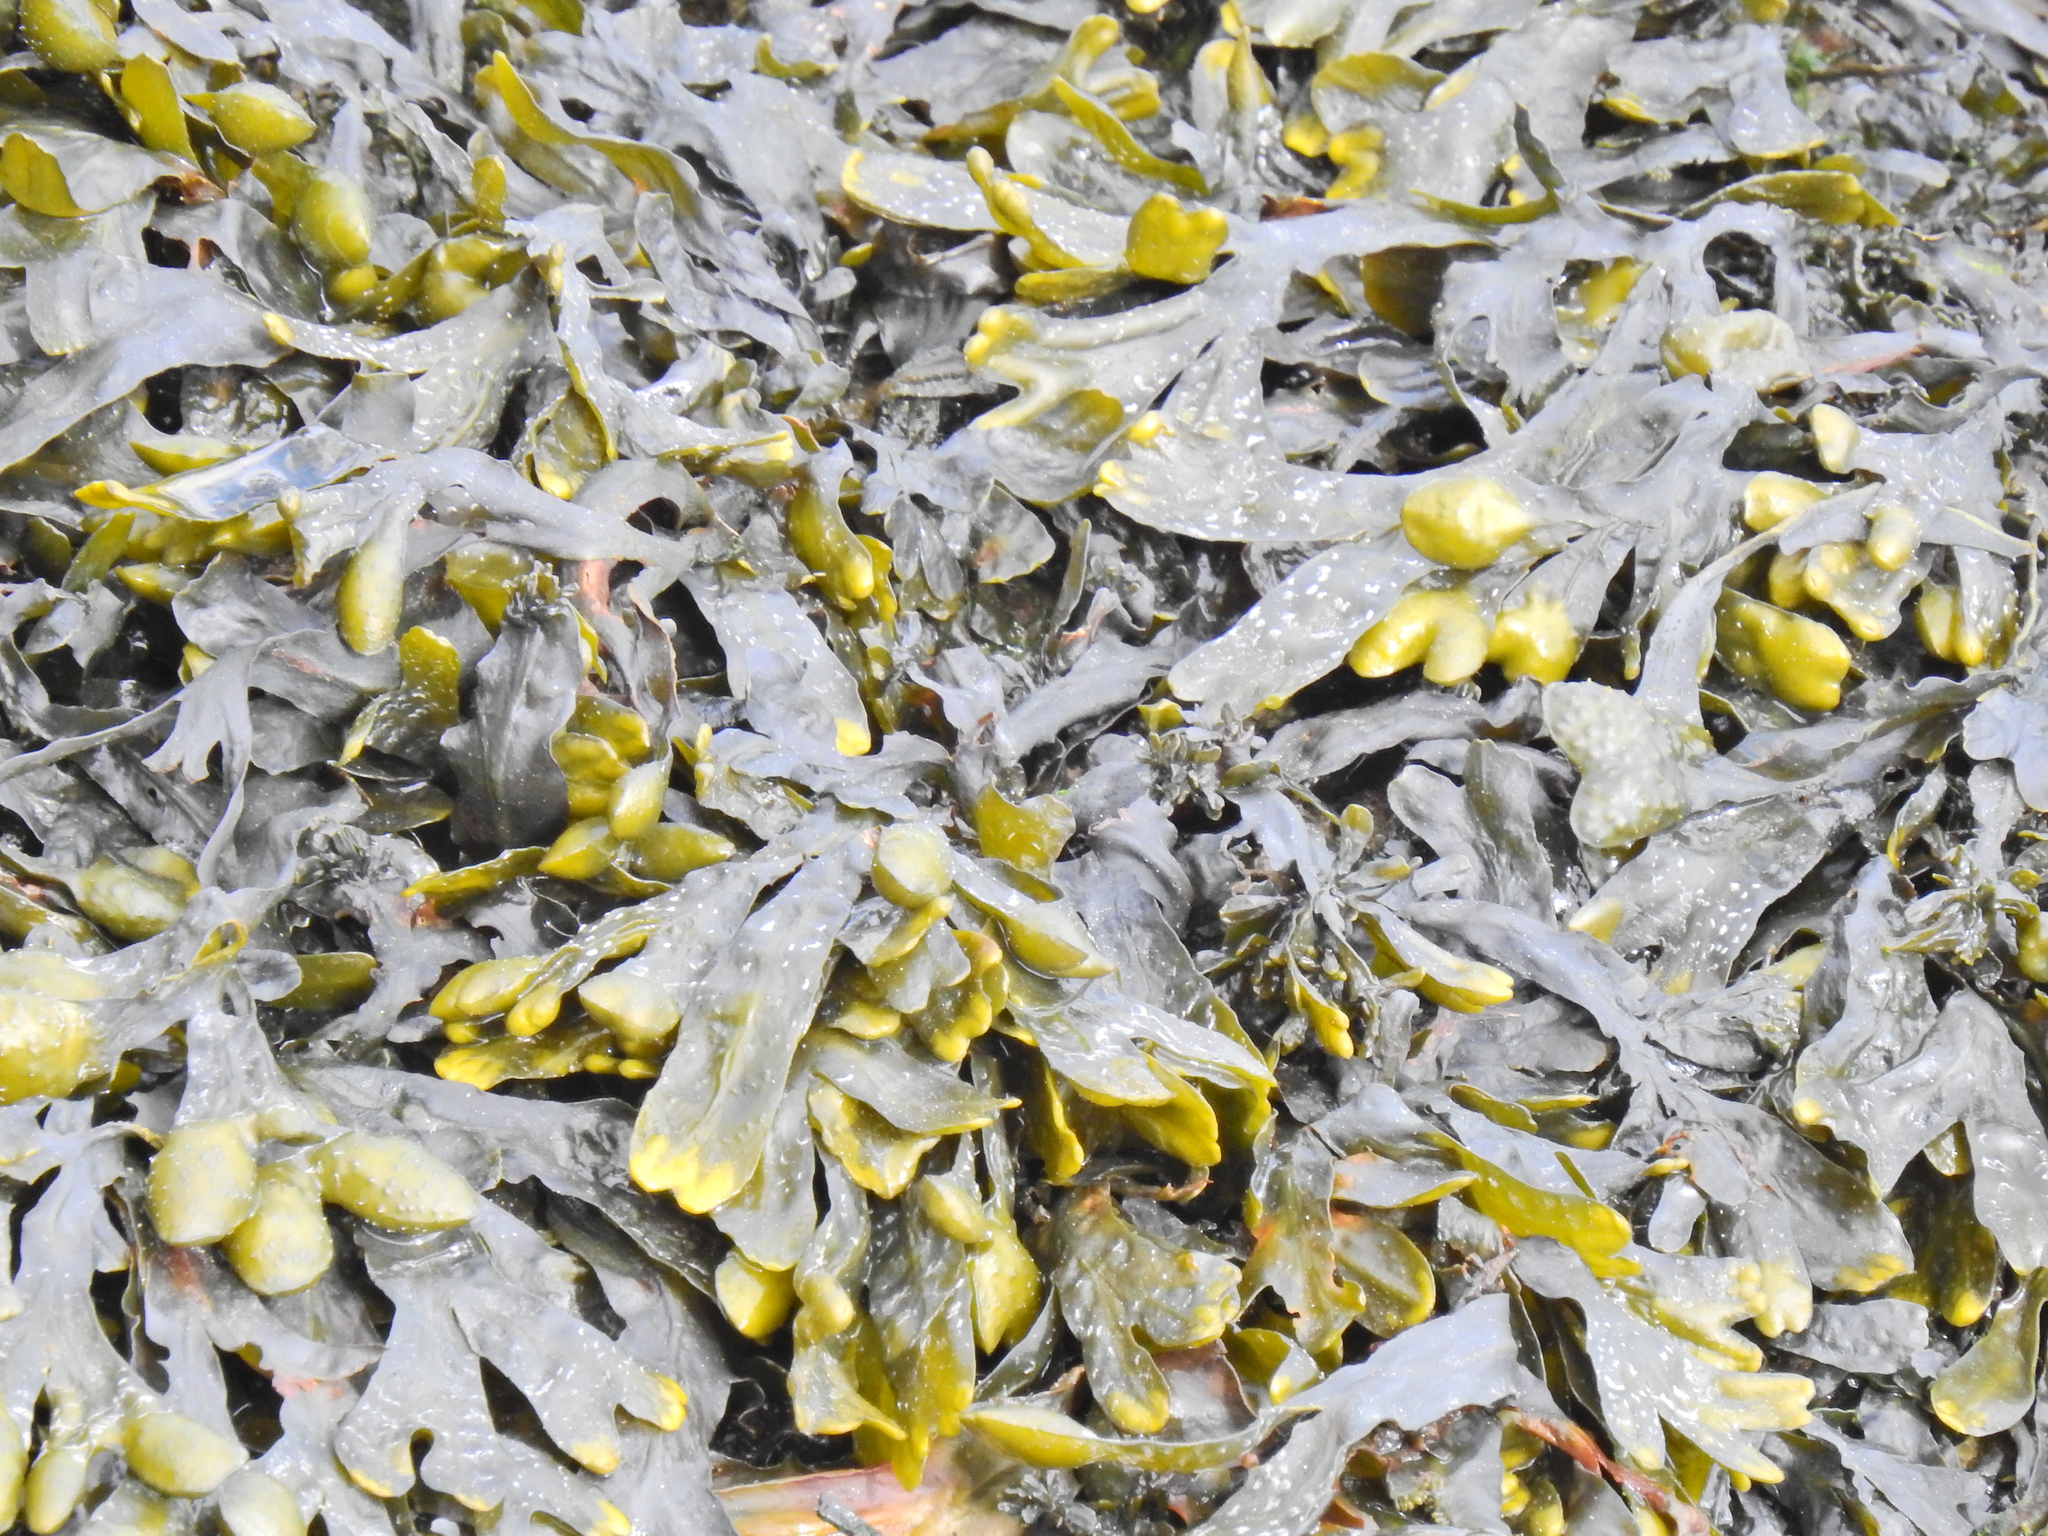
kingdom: Chromista
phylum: Ochrophyta
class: Phaeophyceae
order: Fucales
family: Fucaceae
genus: Fucus
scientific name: Fucus vesiculosus
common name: Bladder wrack
